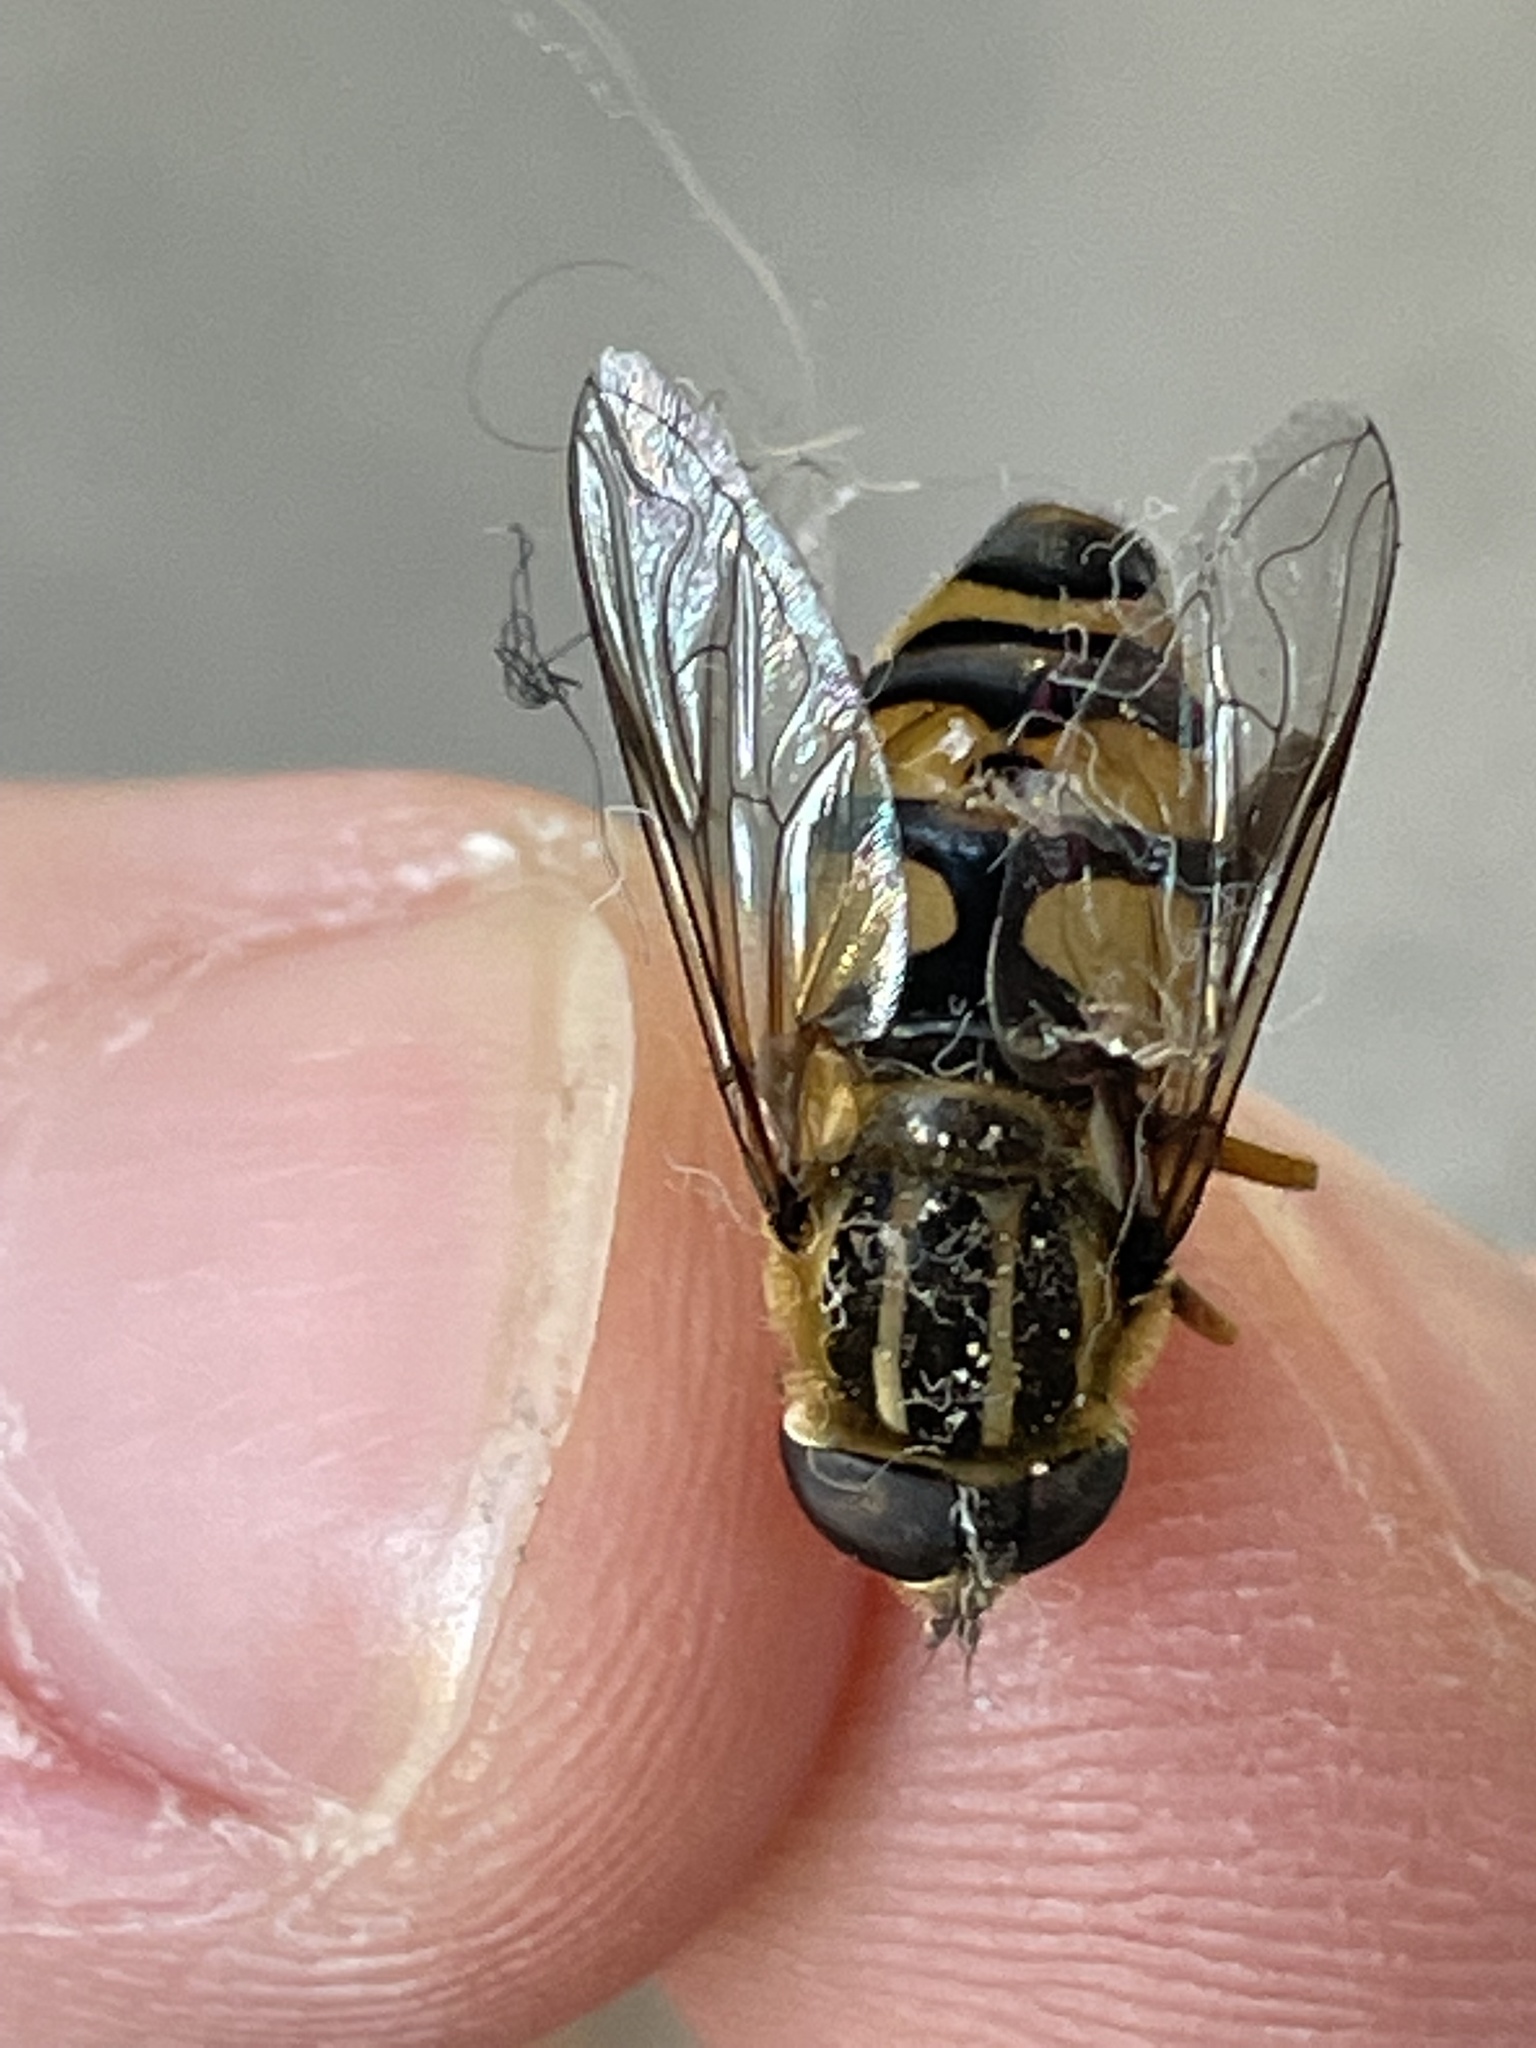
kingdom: Animalia
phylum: Arthropoda
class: Insecta
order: Diptera
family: Syrphidae
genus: Helophilus
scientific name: Helophilus fasciatus
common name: Narrow-headed marsh fly
